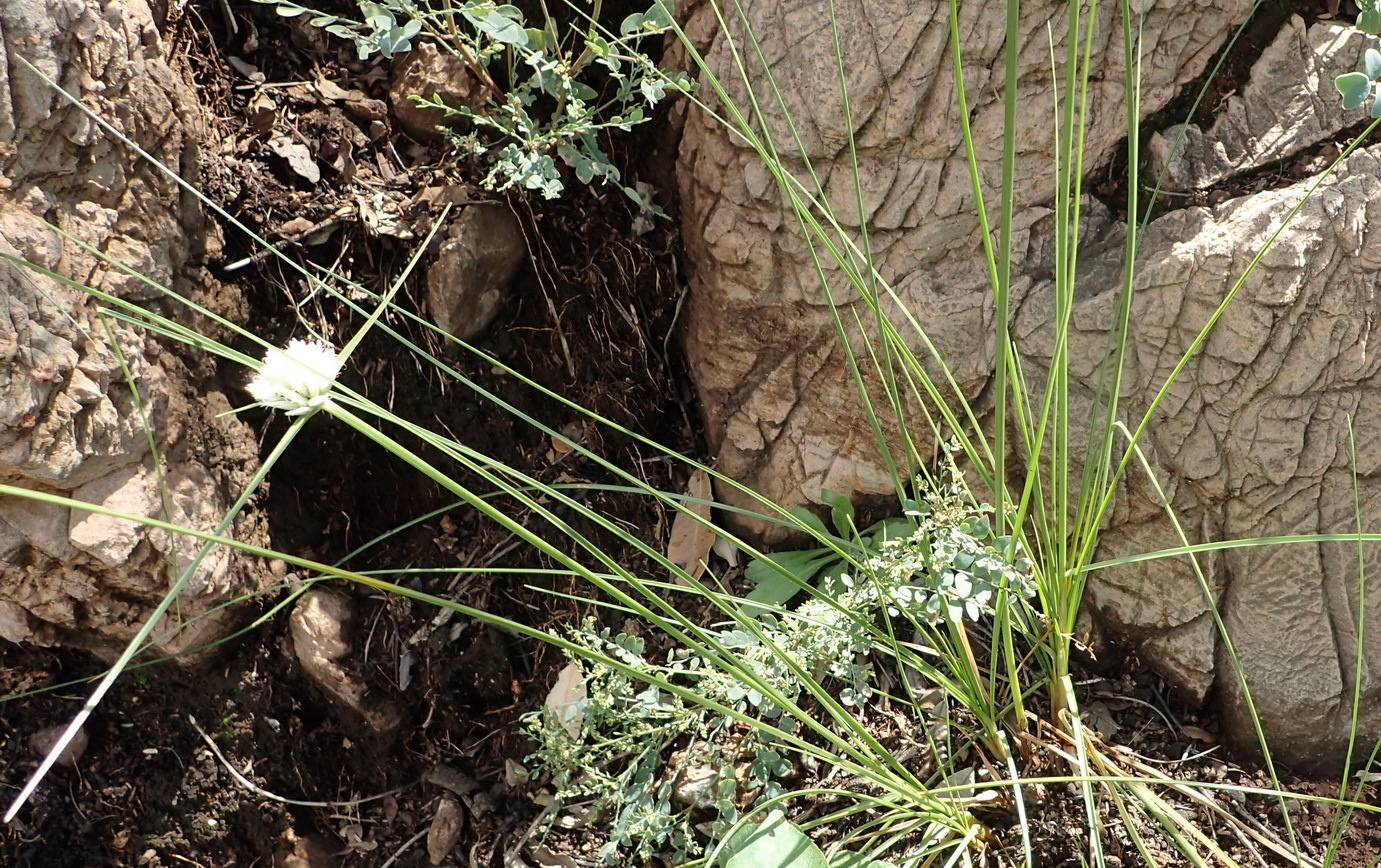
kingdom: Plantae
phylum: Tracheophyta
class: Liliopsida
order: Poales
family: Cyperaceae
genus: Cyperus
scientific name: Cyperus niveus
